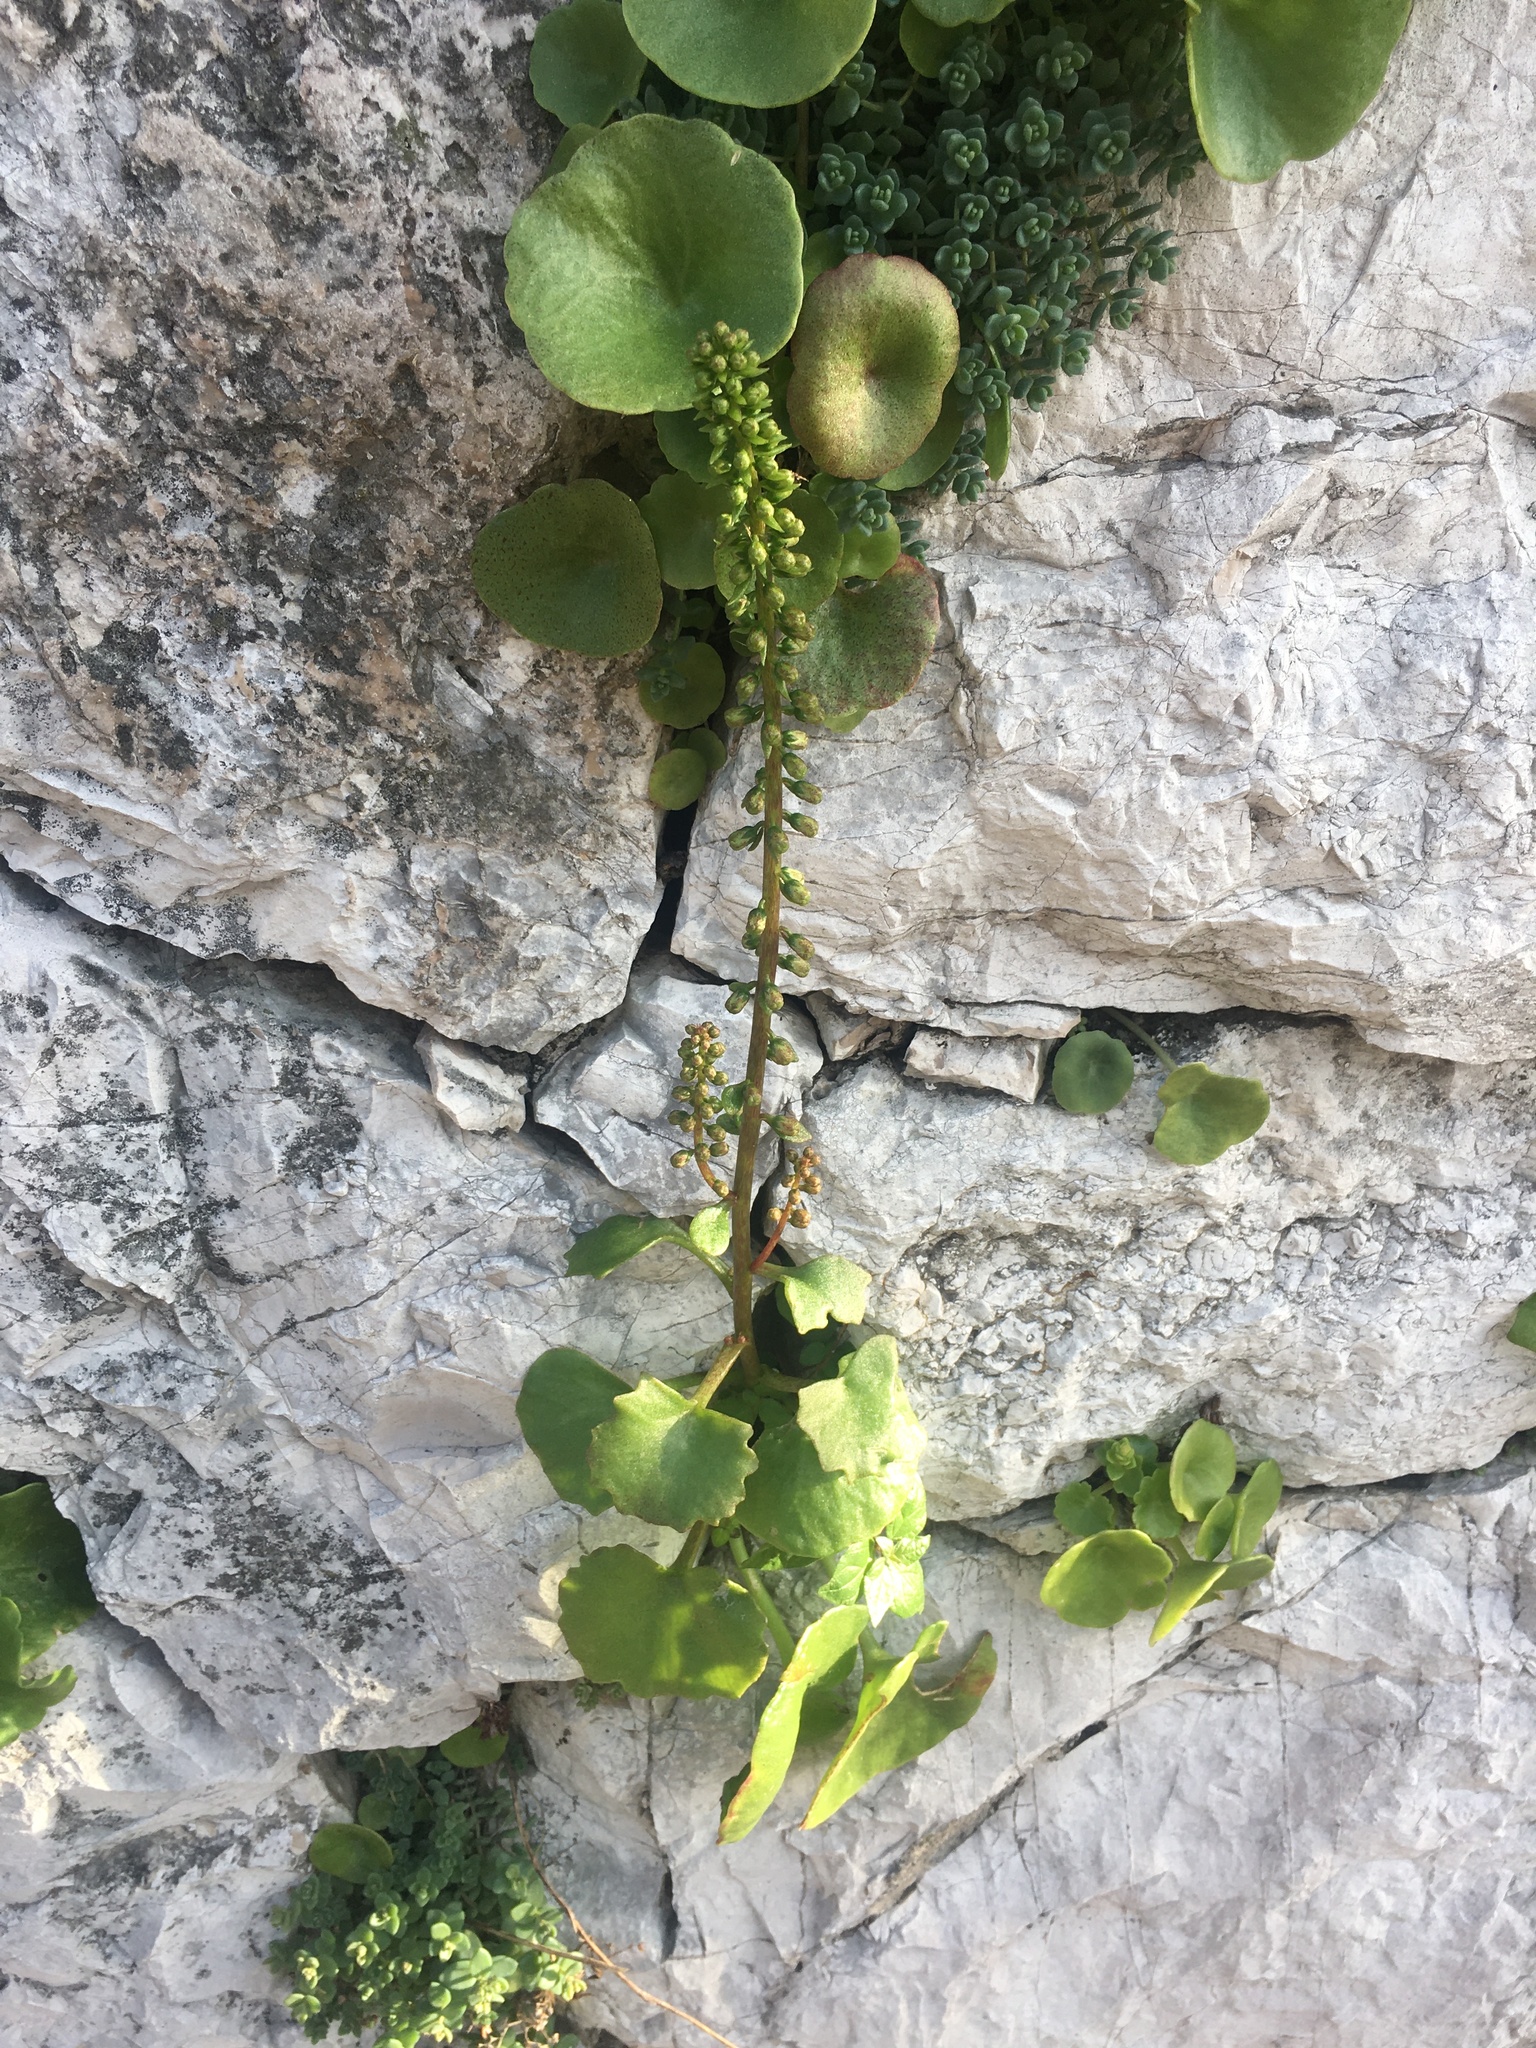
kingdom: Plantae
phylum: Tracheophyta
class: Magnoliopsida
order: Saxifragales
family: Crassulaceae
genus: Umbilicus
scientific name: Umbilicus rupestris
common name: Navelwort
